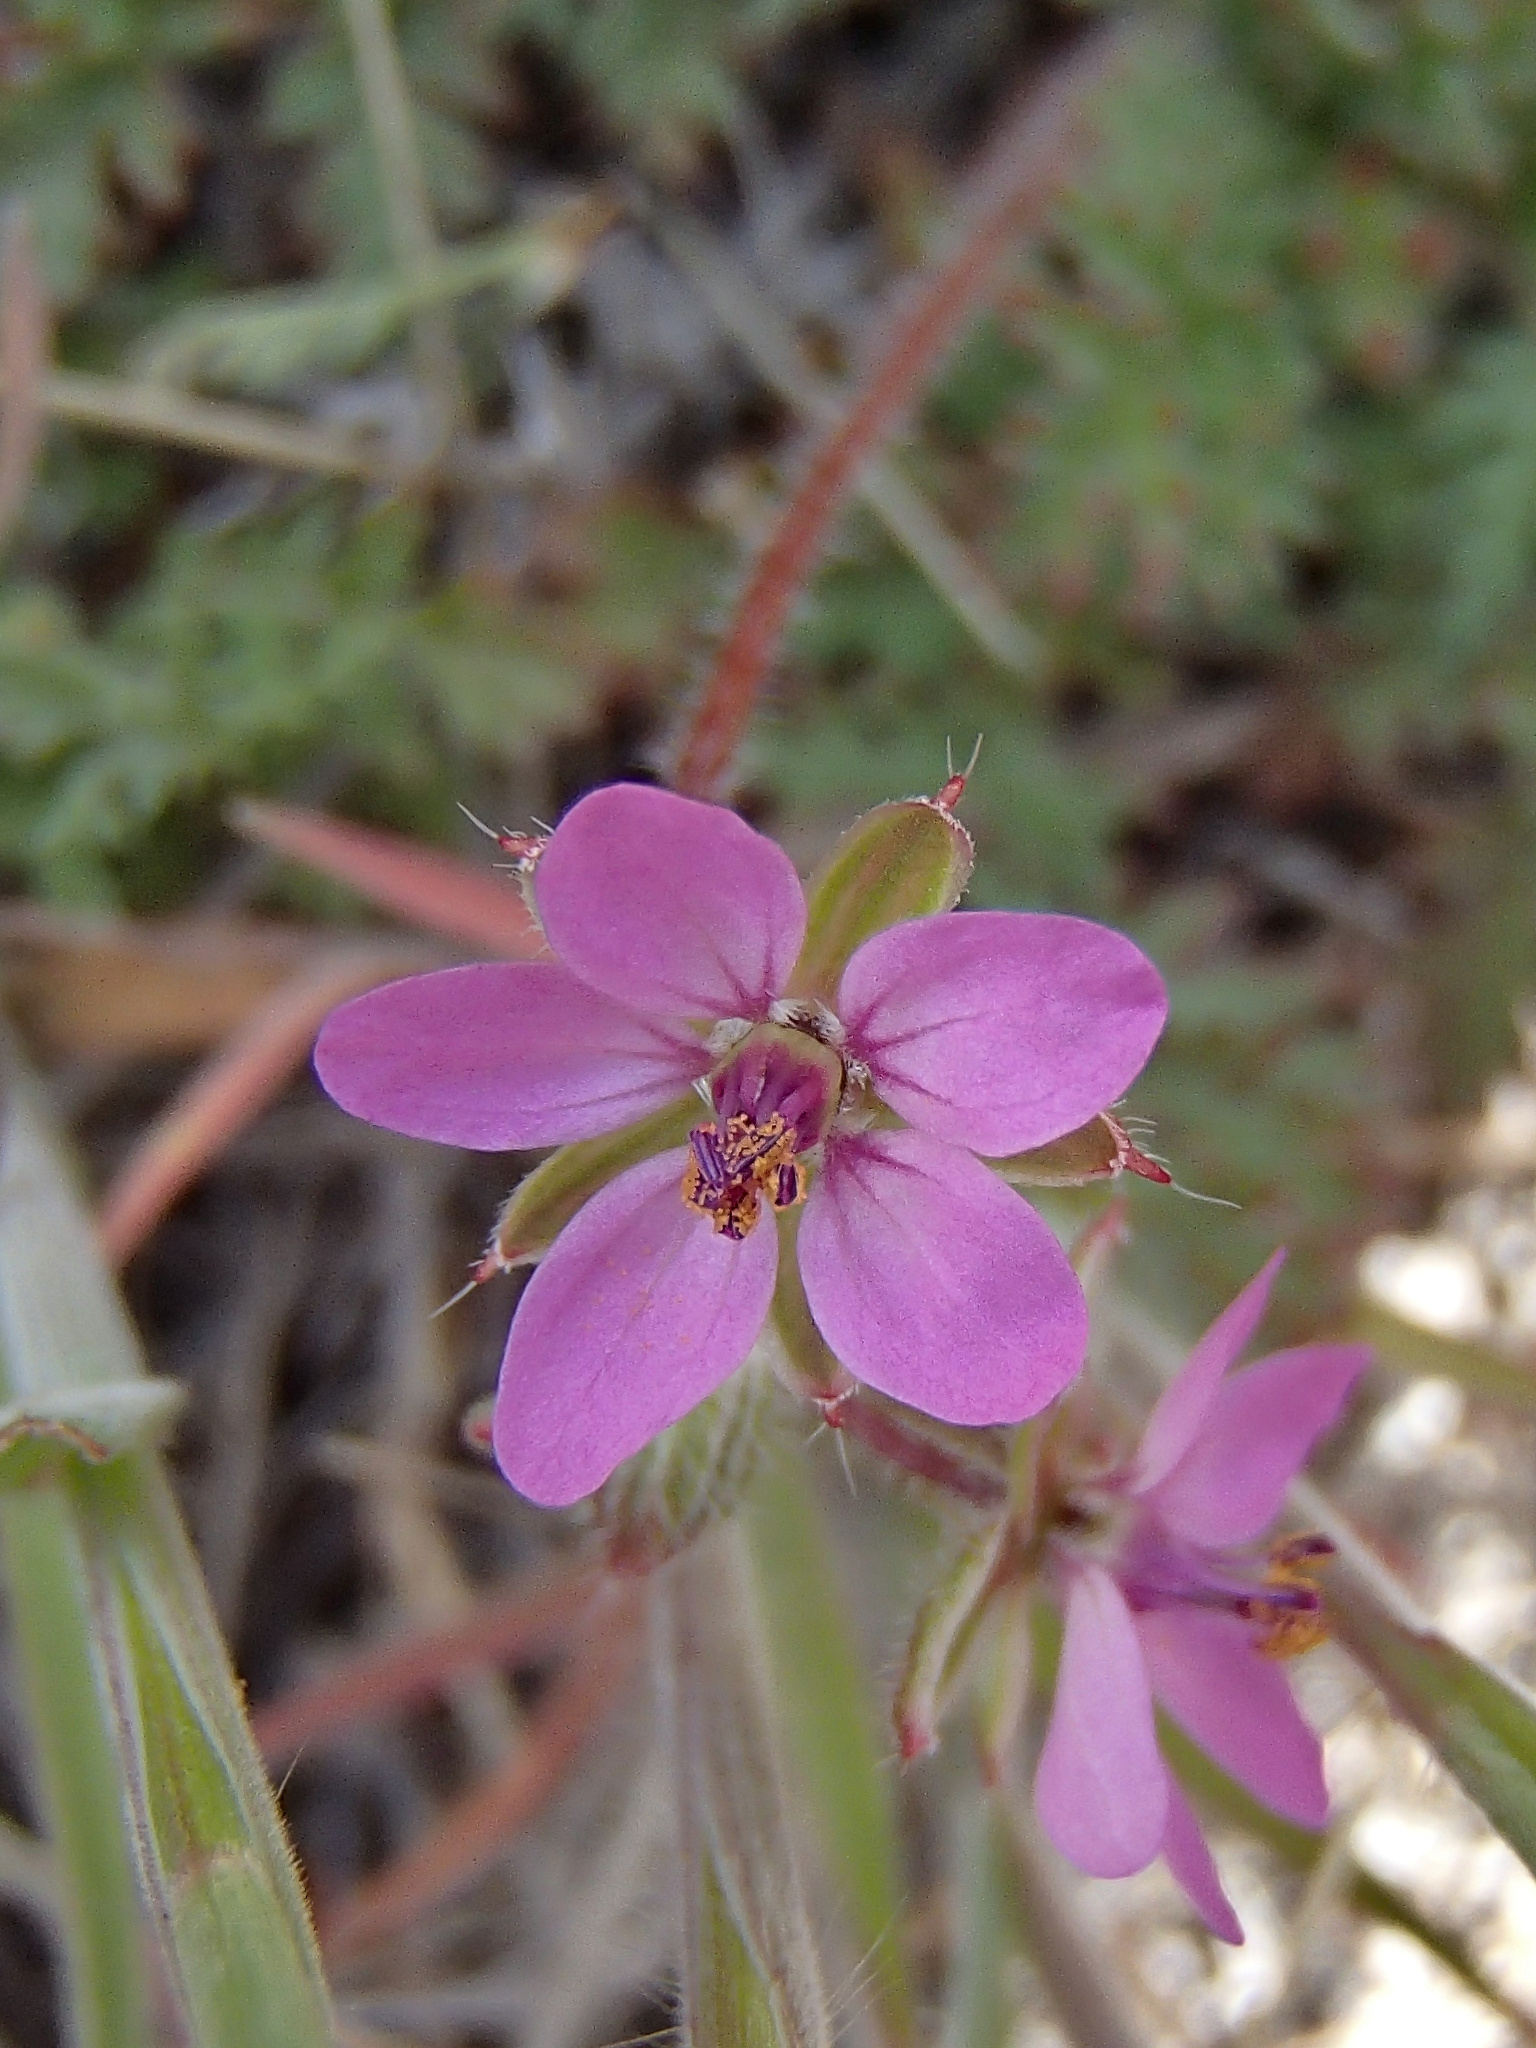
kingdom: Plantae
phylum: Tracheophyta
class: Magnoliopsida
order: Geraniales
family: Geraniaceae
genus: Erodium
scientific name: Erodium cicutarium
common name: Common stork's-bill
